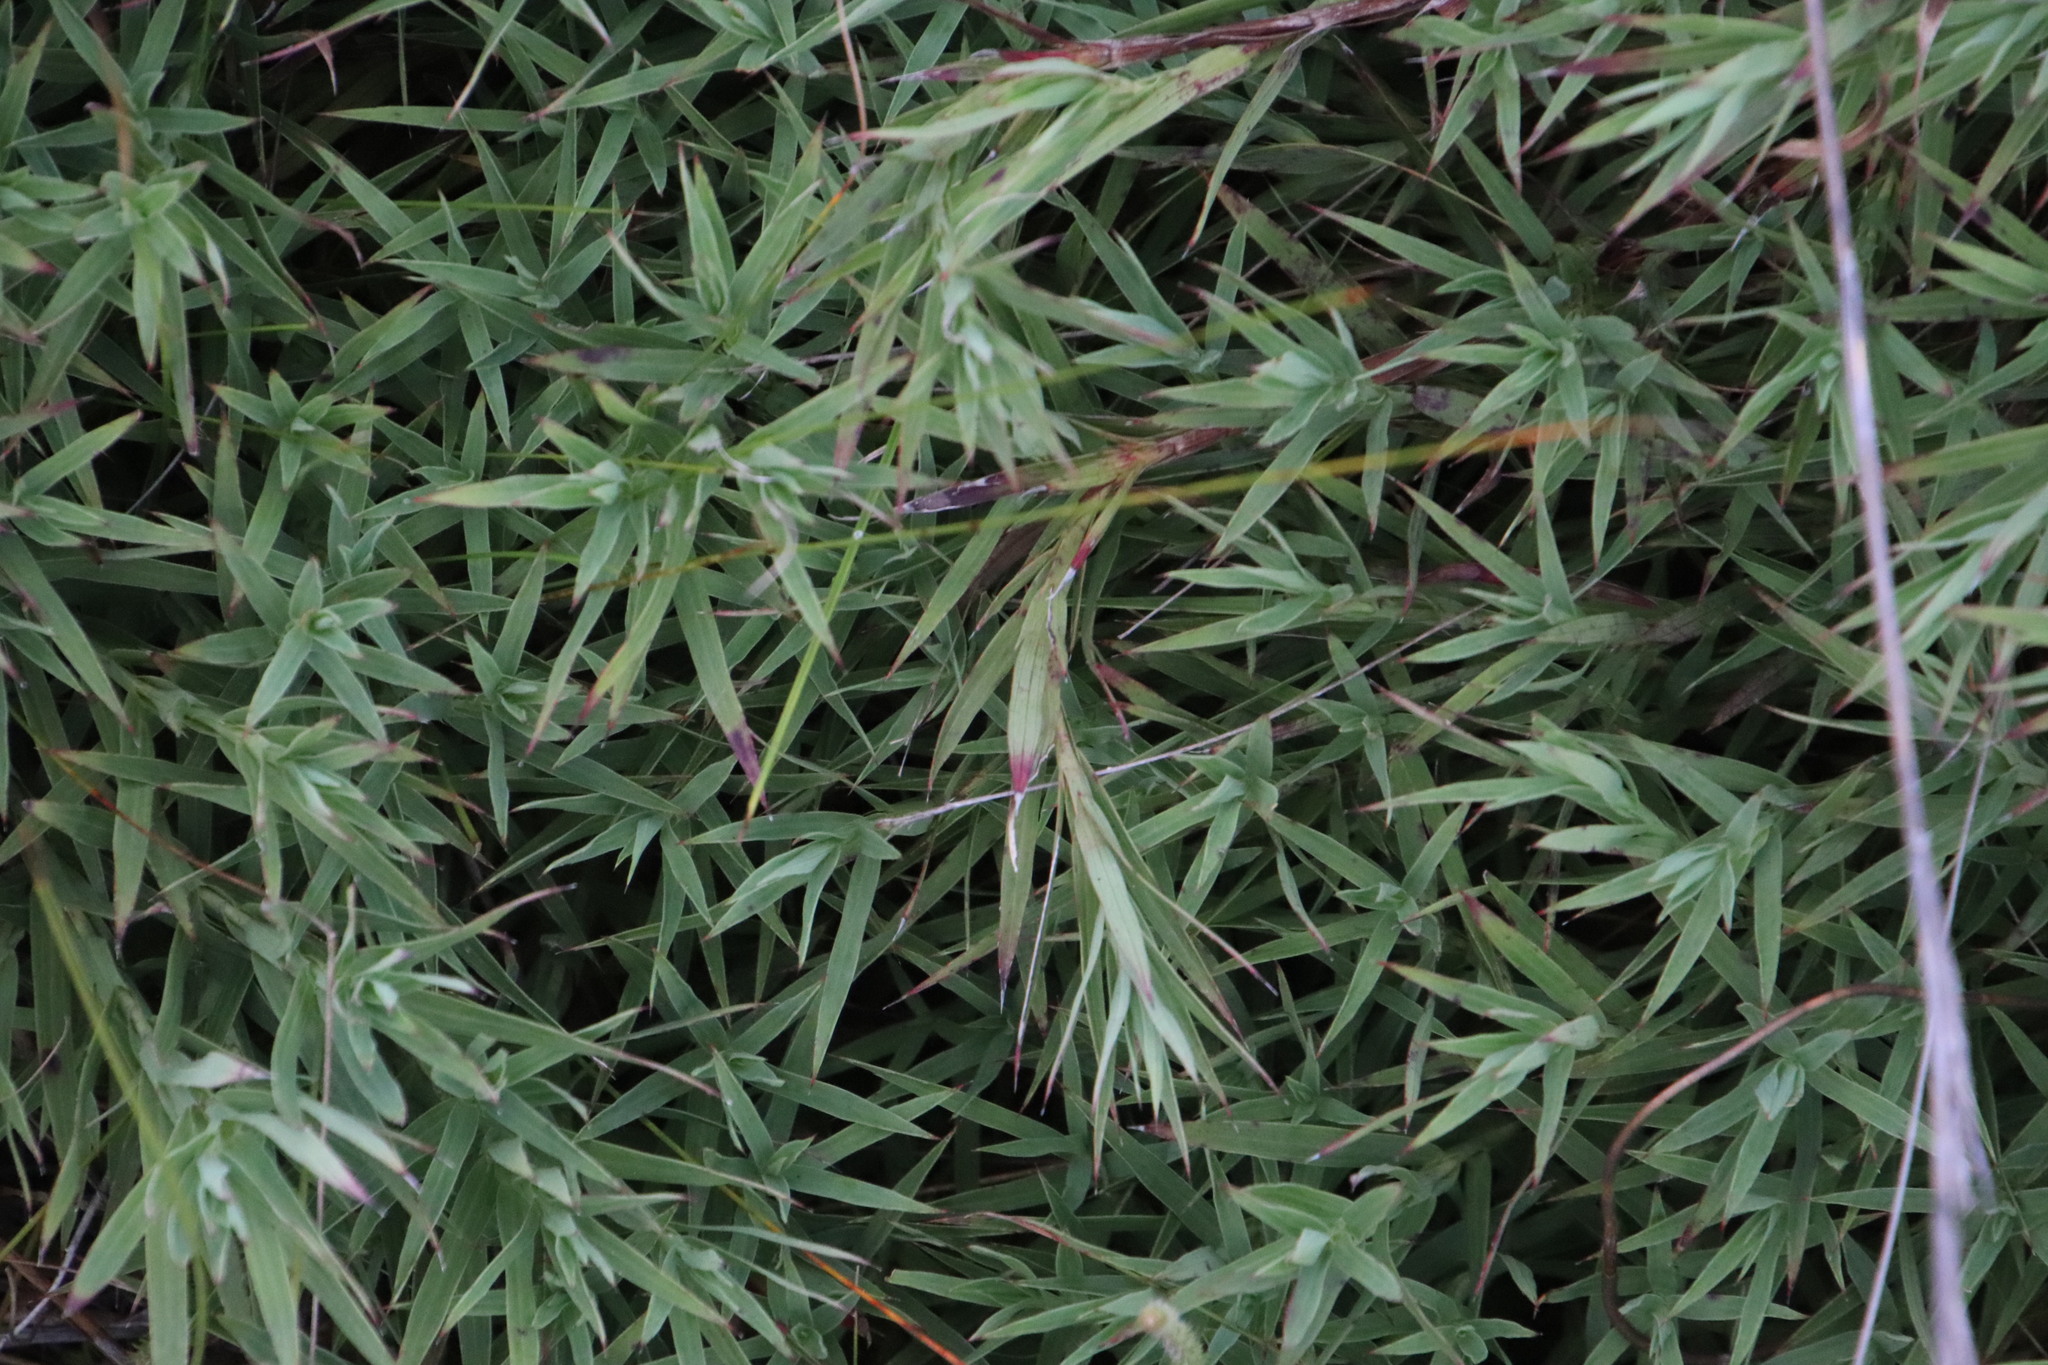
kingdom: Plantae
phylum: Tracheophyta
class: Magnoliopsida
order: Rosales
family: Rosaceae
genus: Cliffortia
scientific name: Cliffortia graminea
